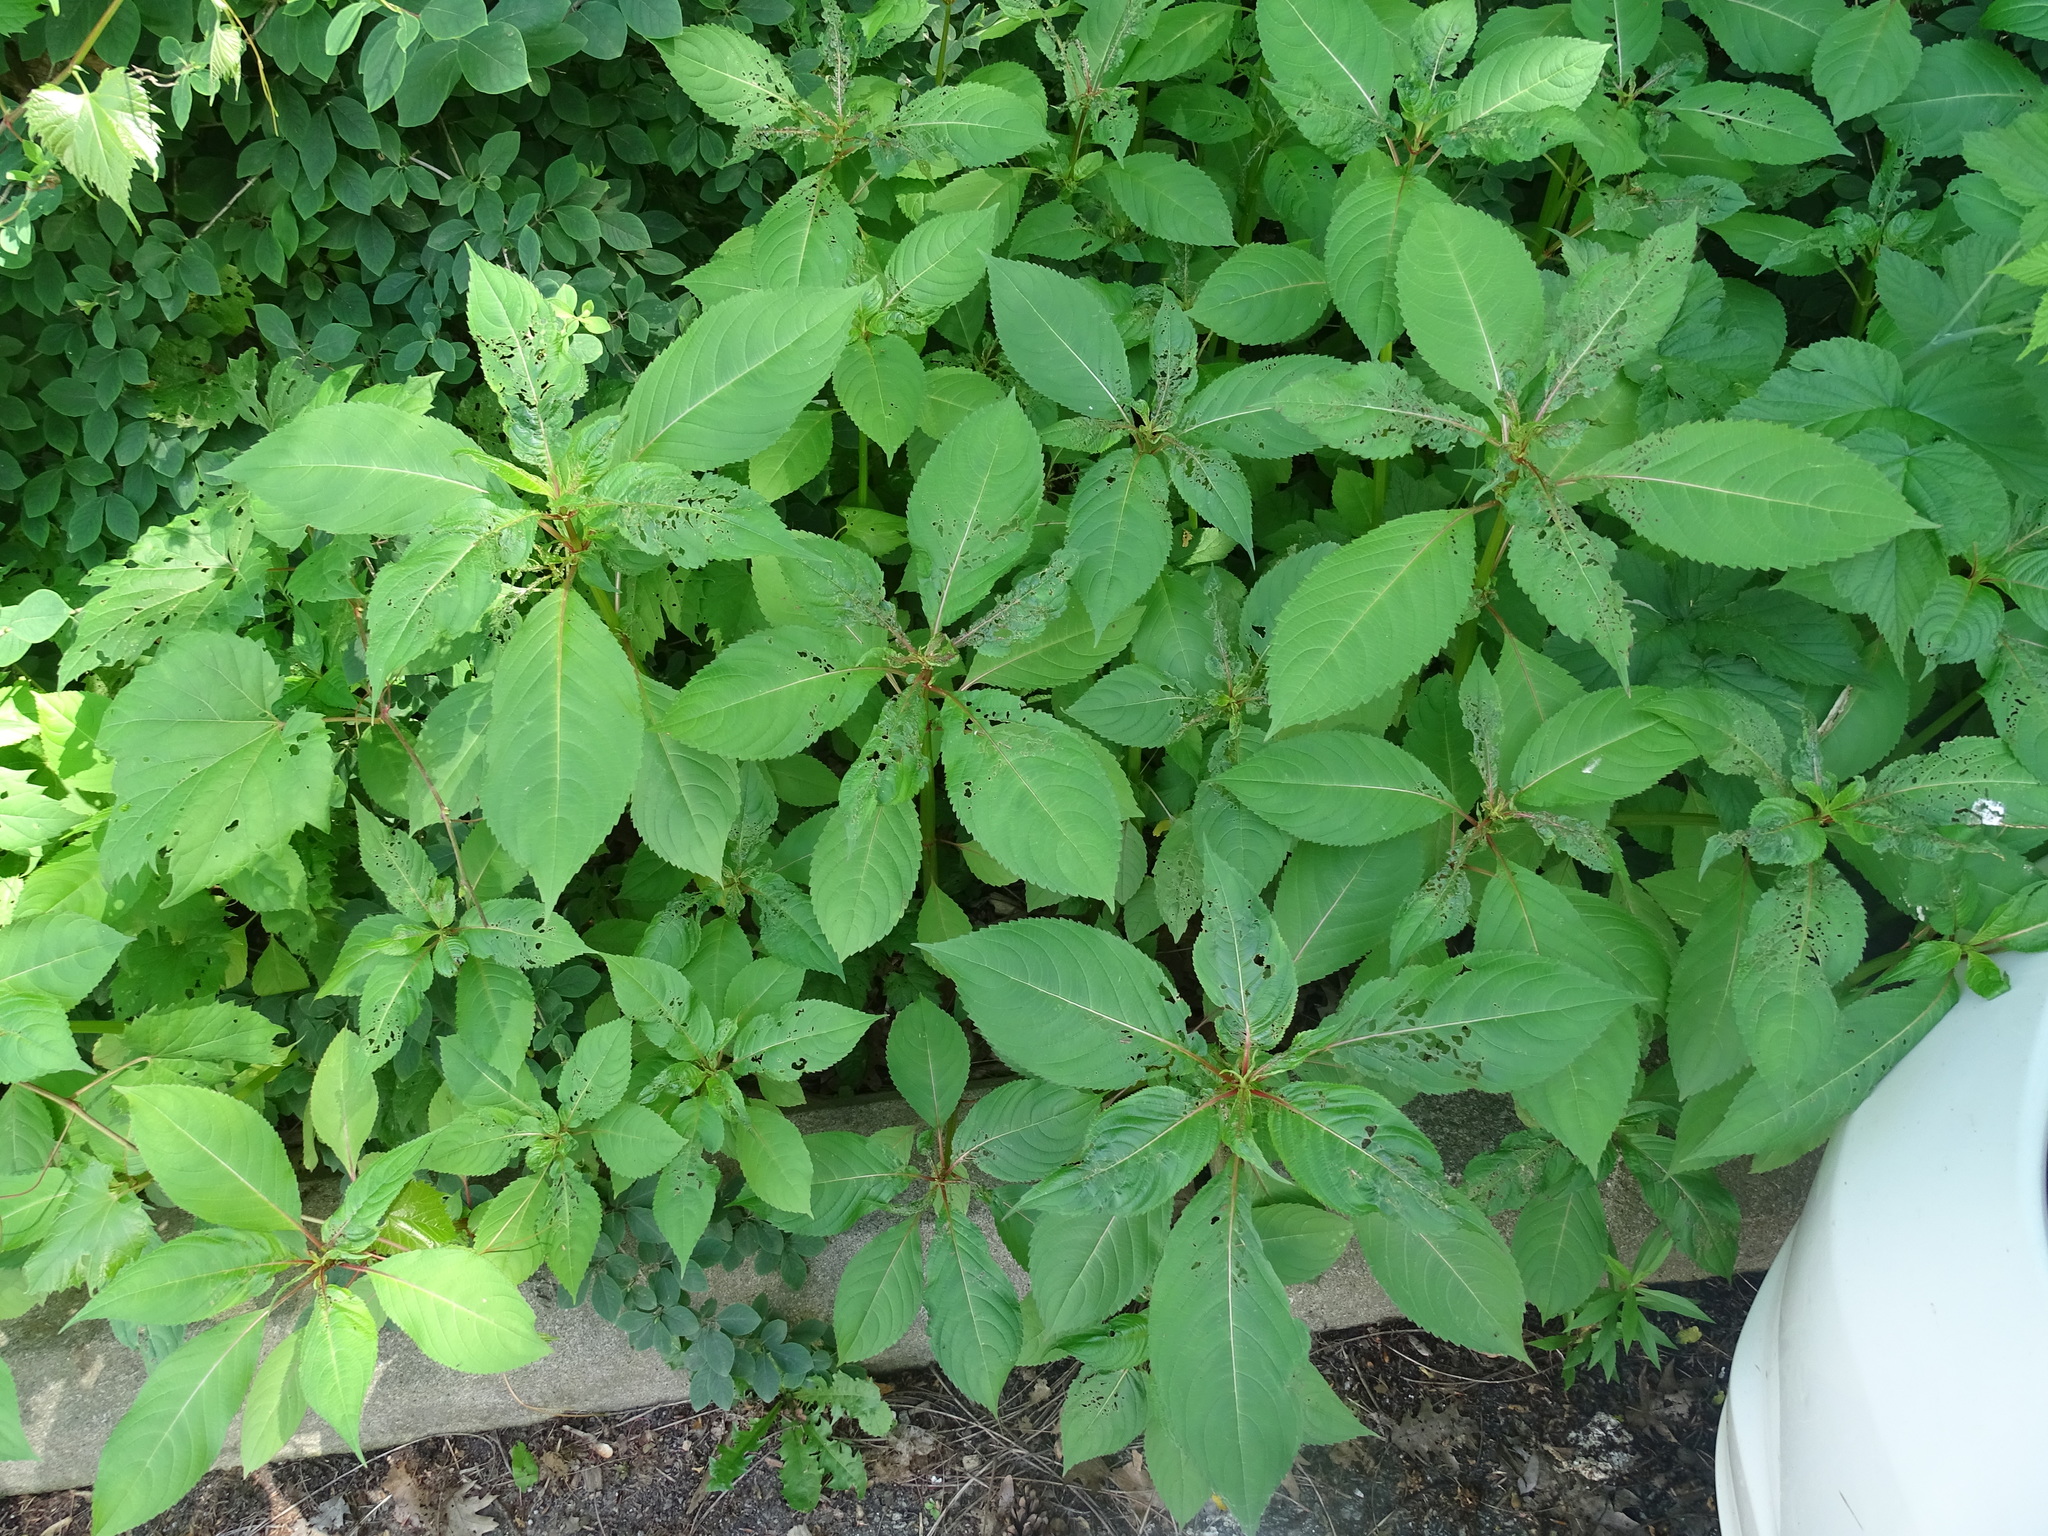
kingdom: Plantae
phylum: Tracheophyta
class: Magnoliopsida
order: Ericales
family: Balsaminaceae
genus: Impatiens
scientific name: Impatiens glandulifera
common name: Himalayan balsam
